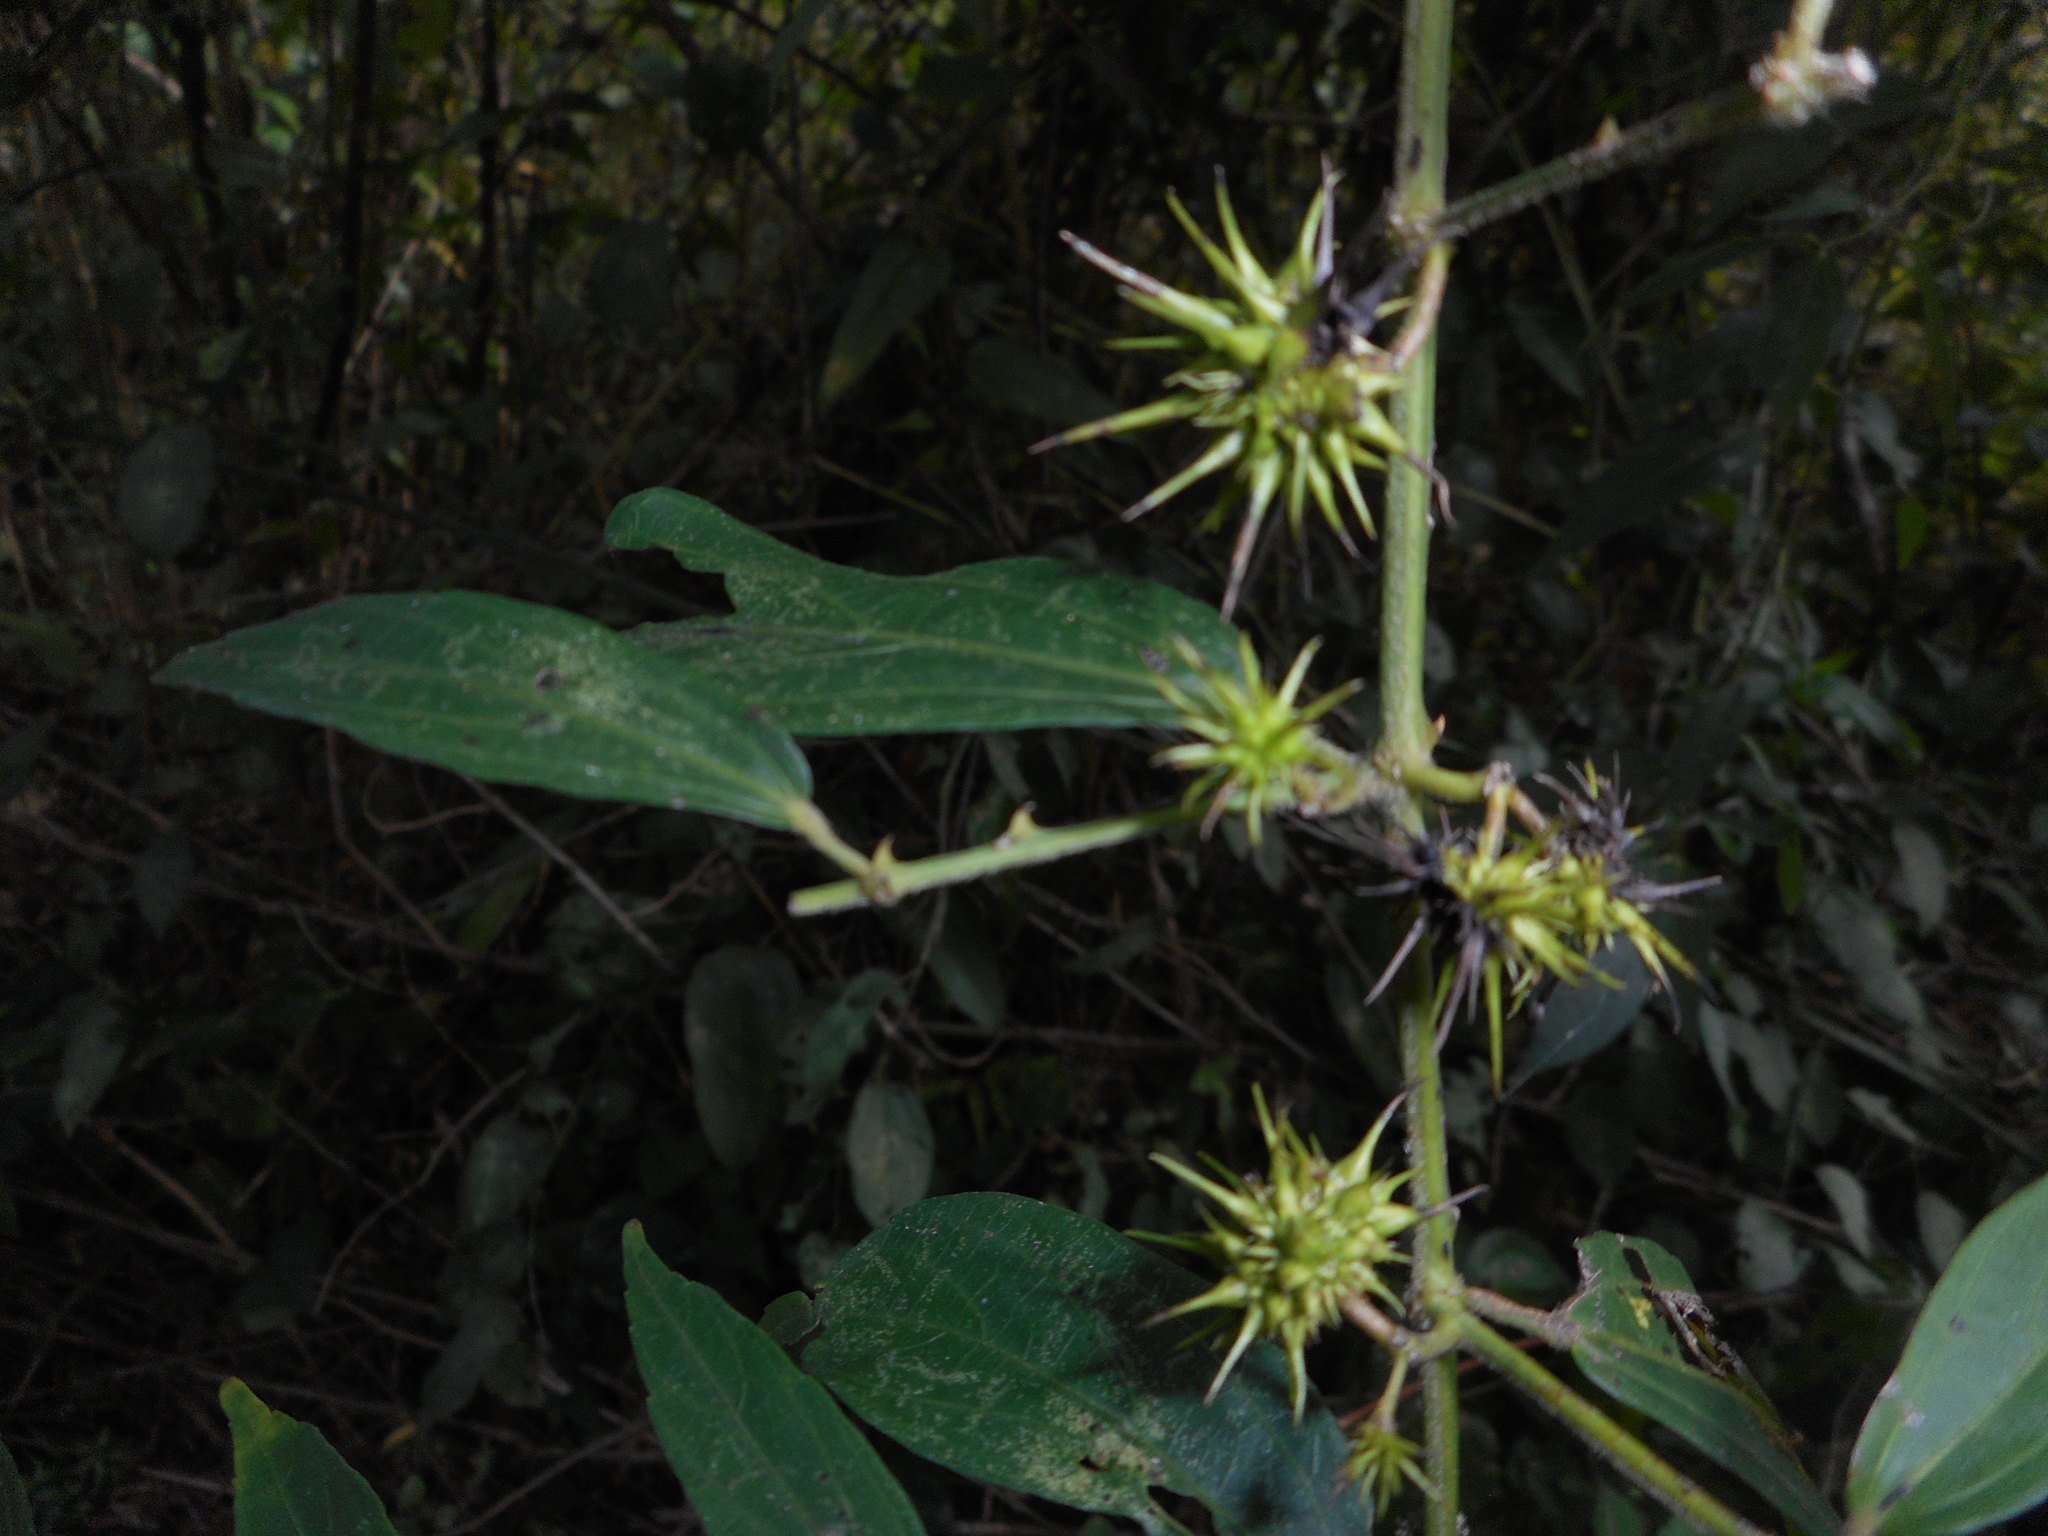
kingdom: Plantae
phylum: Tracheophyta
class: Magnoliopsida
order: Malvales
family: Malvaceae
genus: Byttneria
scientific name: Byttneria aculeata
